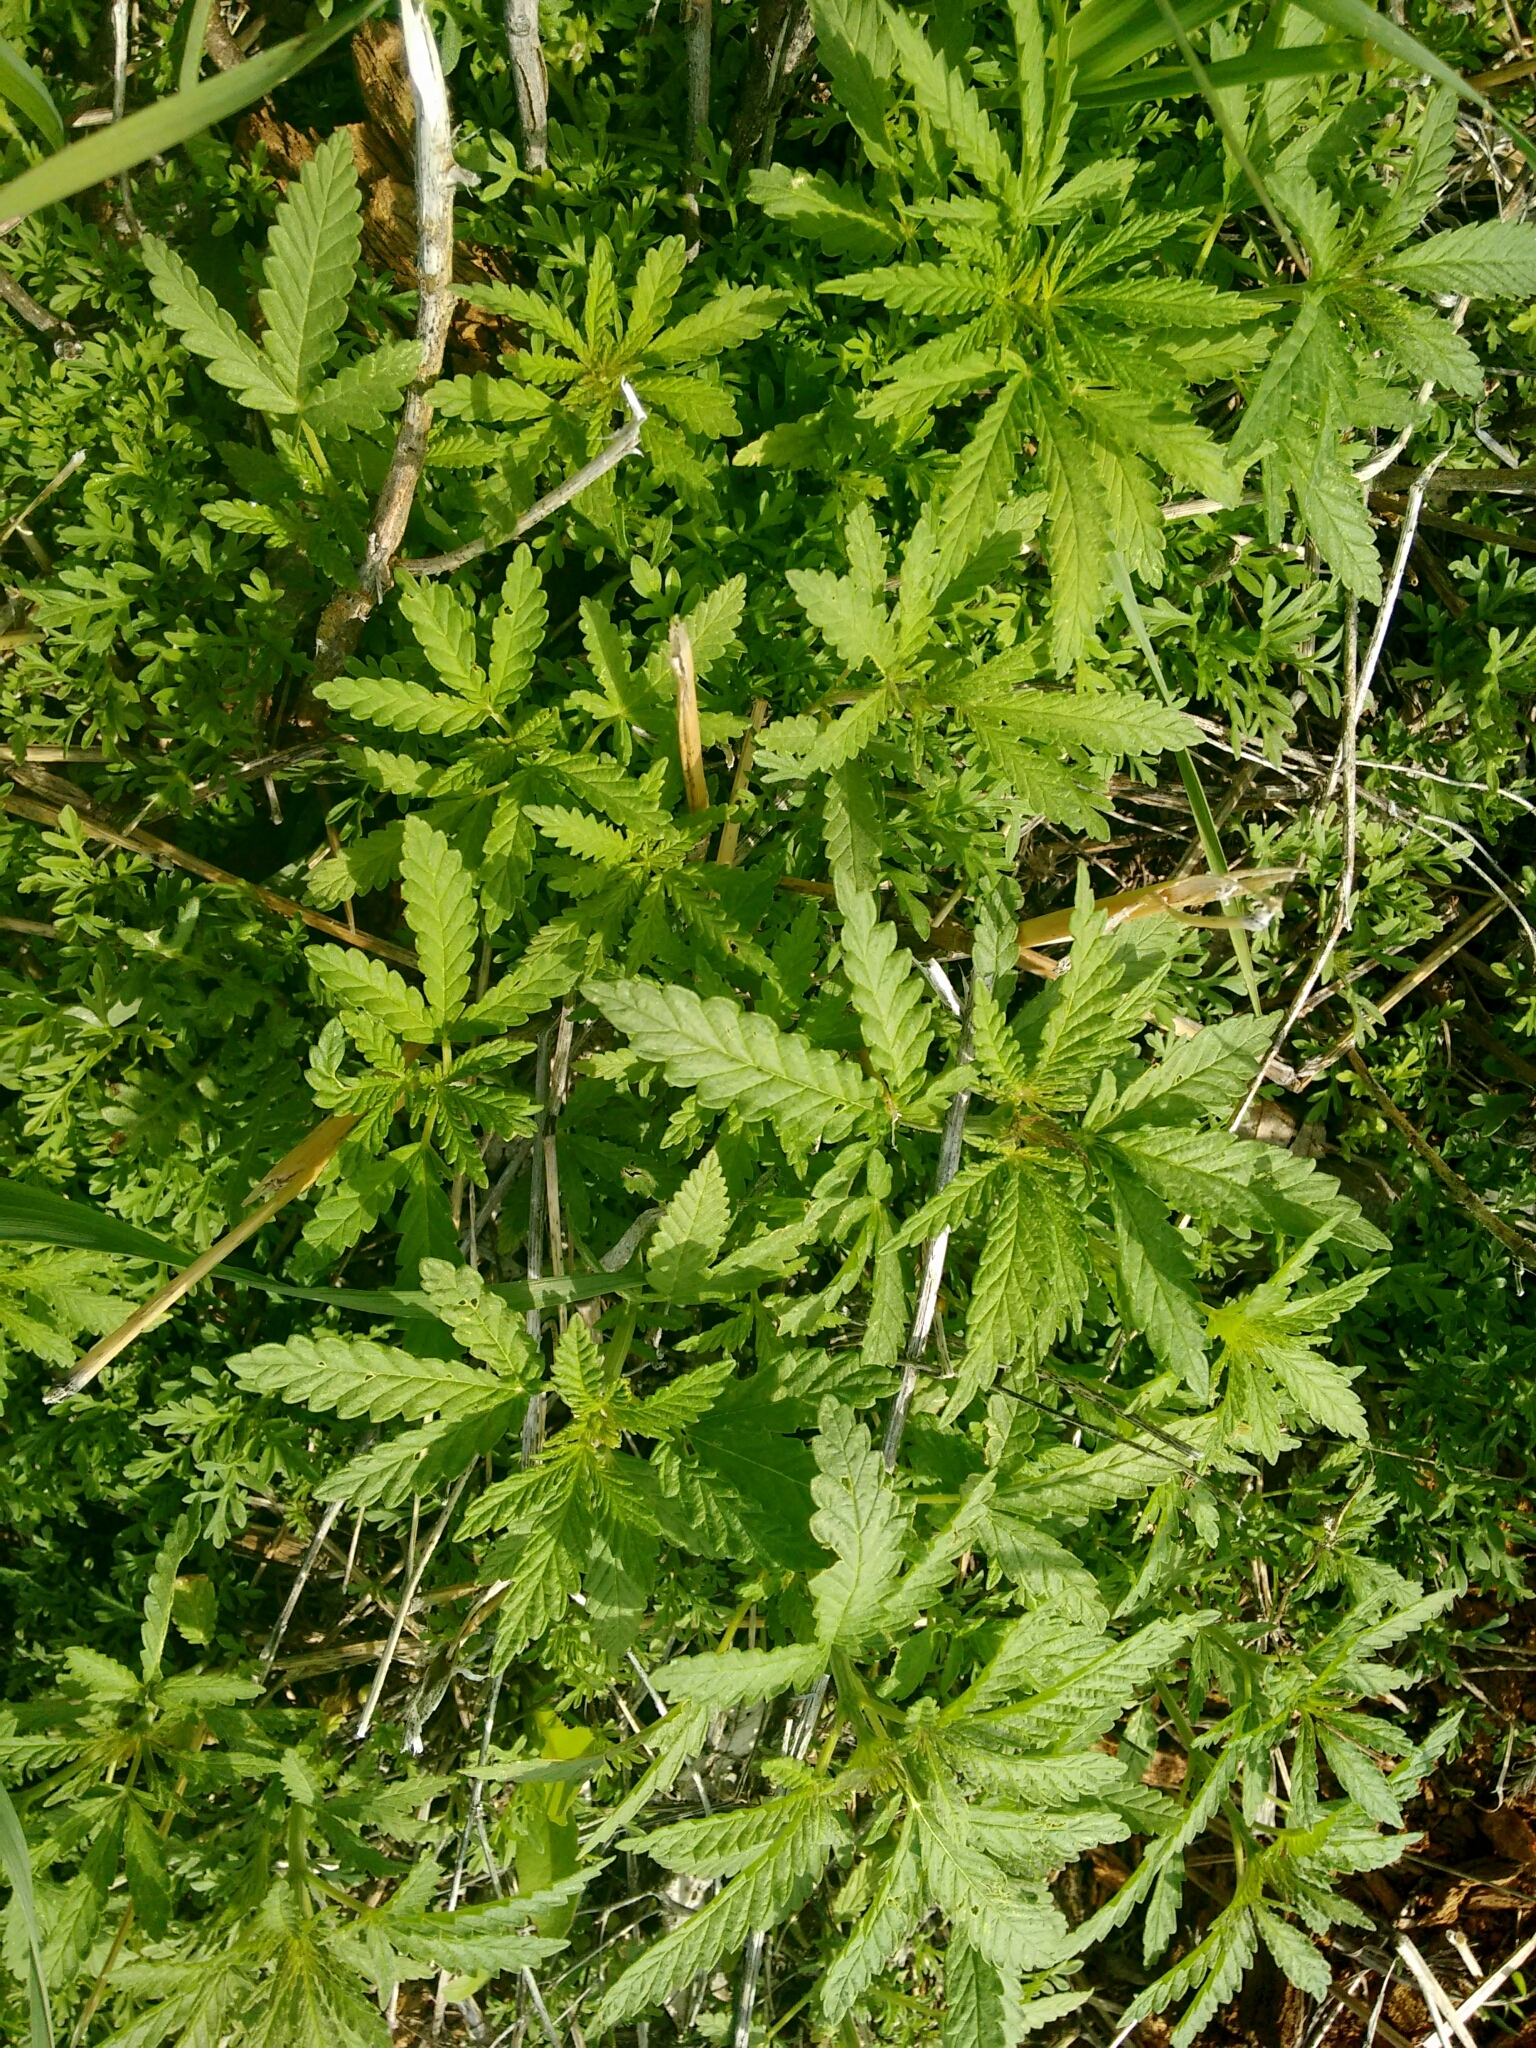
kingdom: Plantae
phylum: Tracheophyta
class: Magnoliopsida
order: Rosales
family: Cannabaceae
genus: Cannabis
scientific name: Cannabis sativa
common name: Hemp
